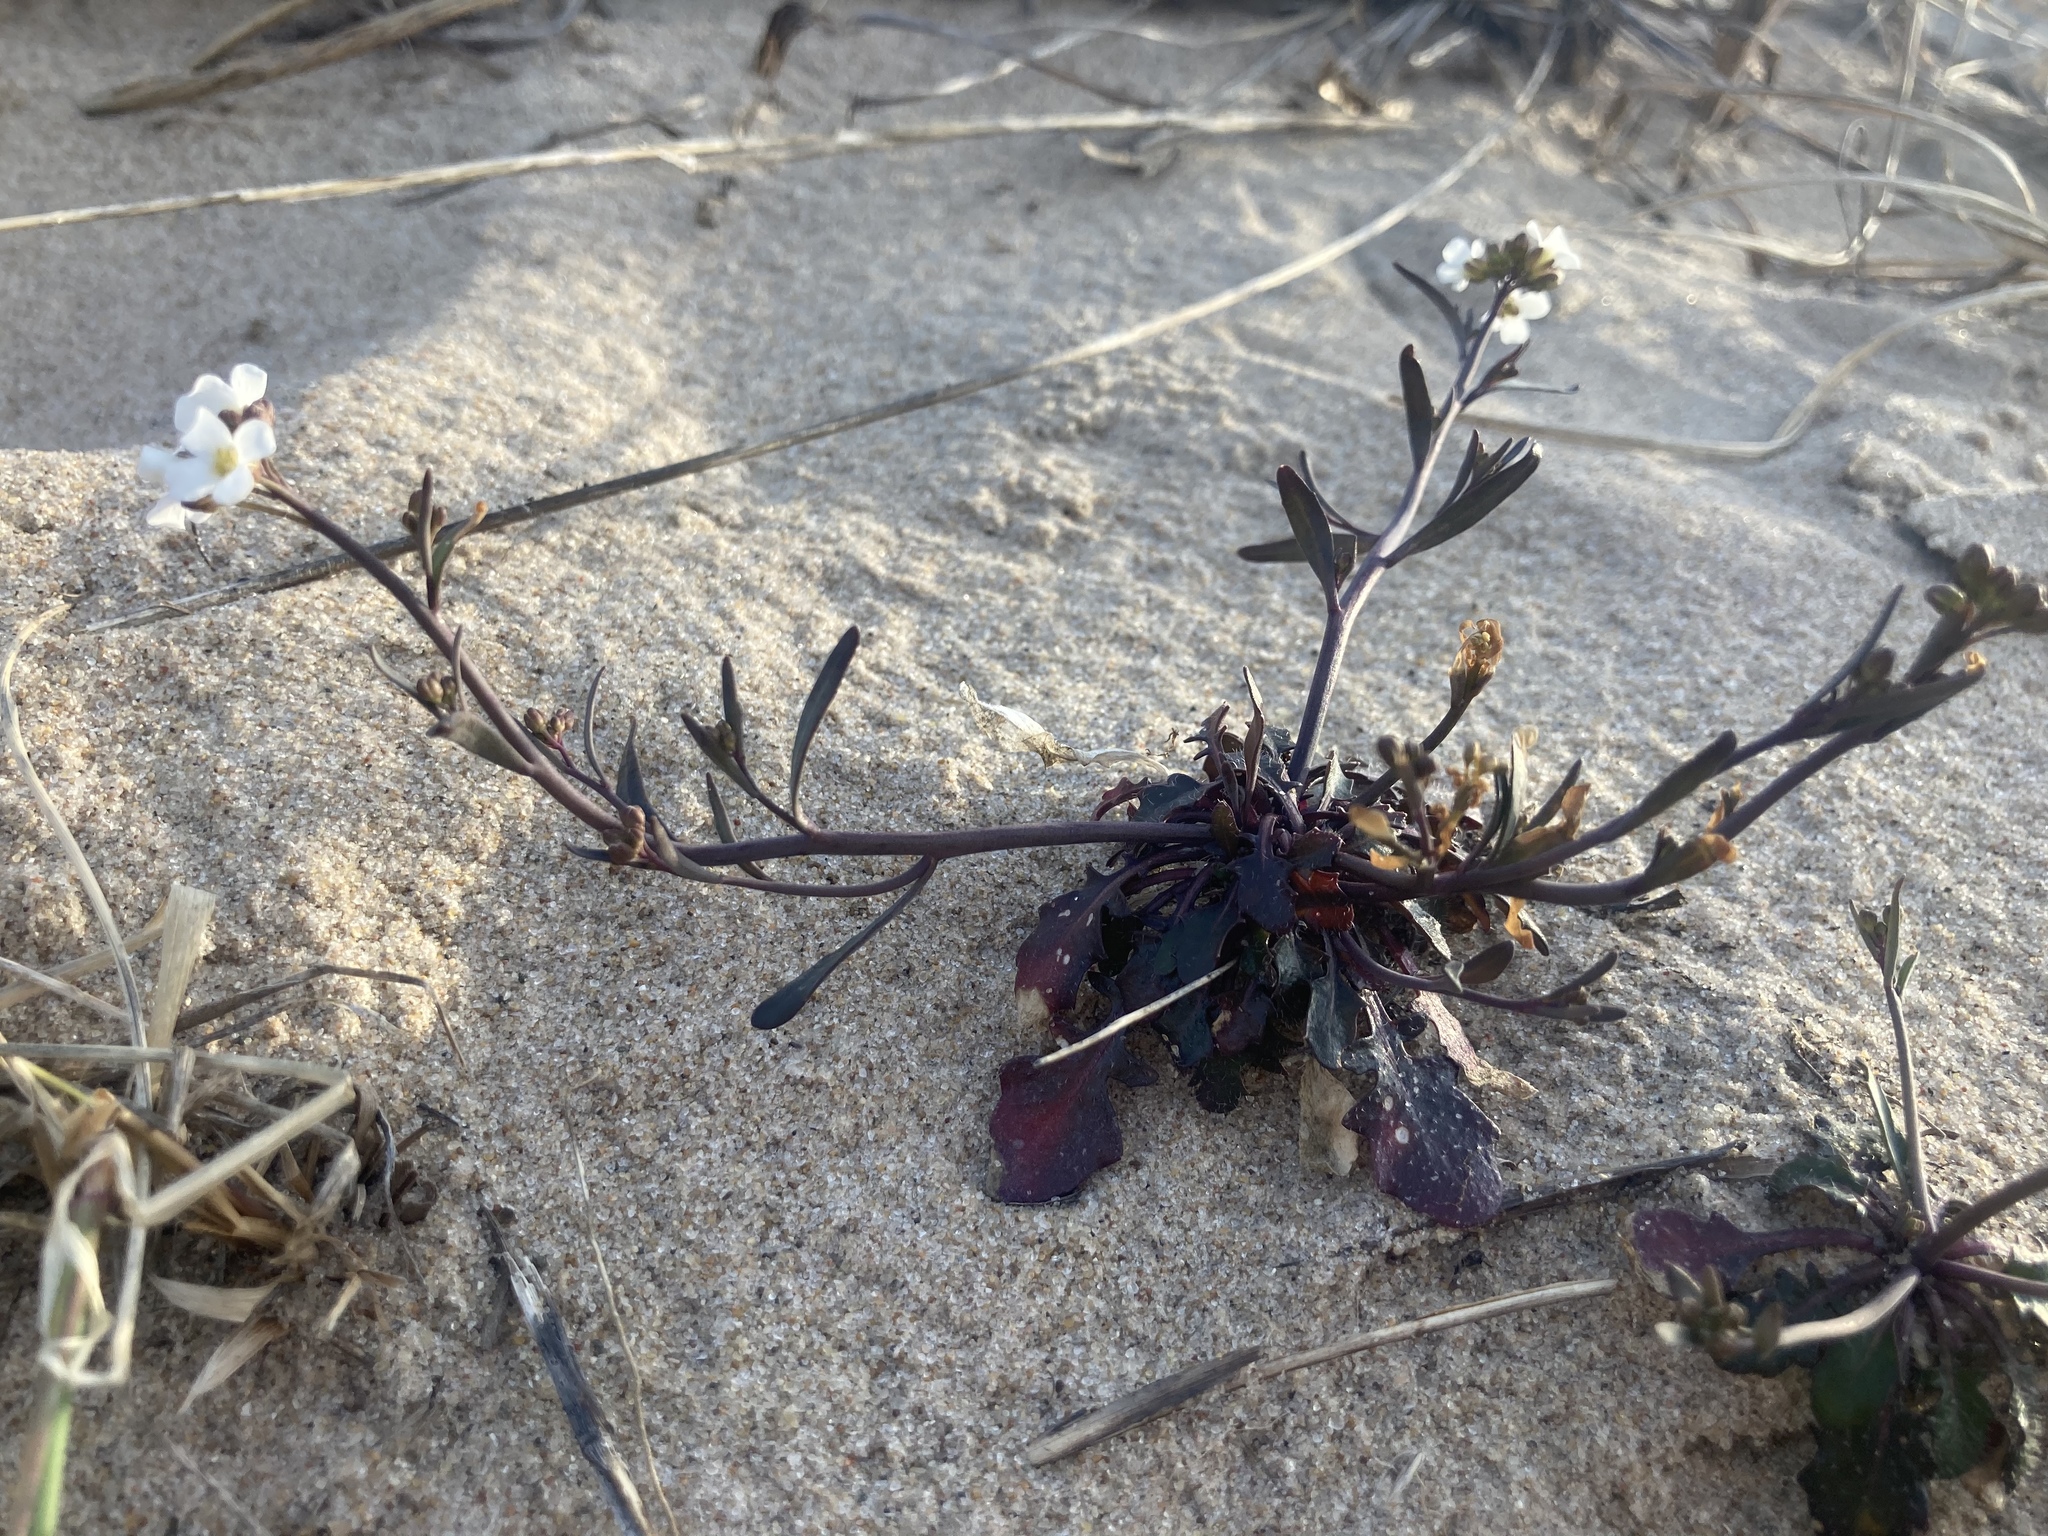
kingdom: Plantae
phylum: Tracheophyta
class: Magnoliopsida
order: Brassicales
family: Brassicaceae
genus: Arabidopsis
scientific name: Arabidopsis lyrata
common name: Lyrate rockcress
